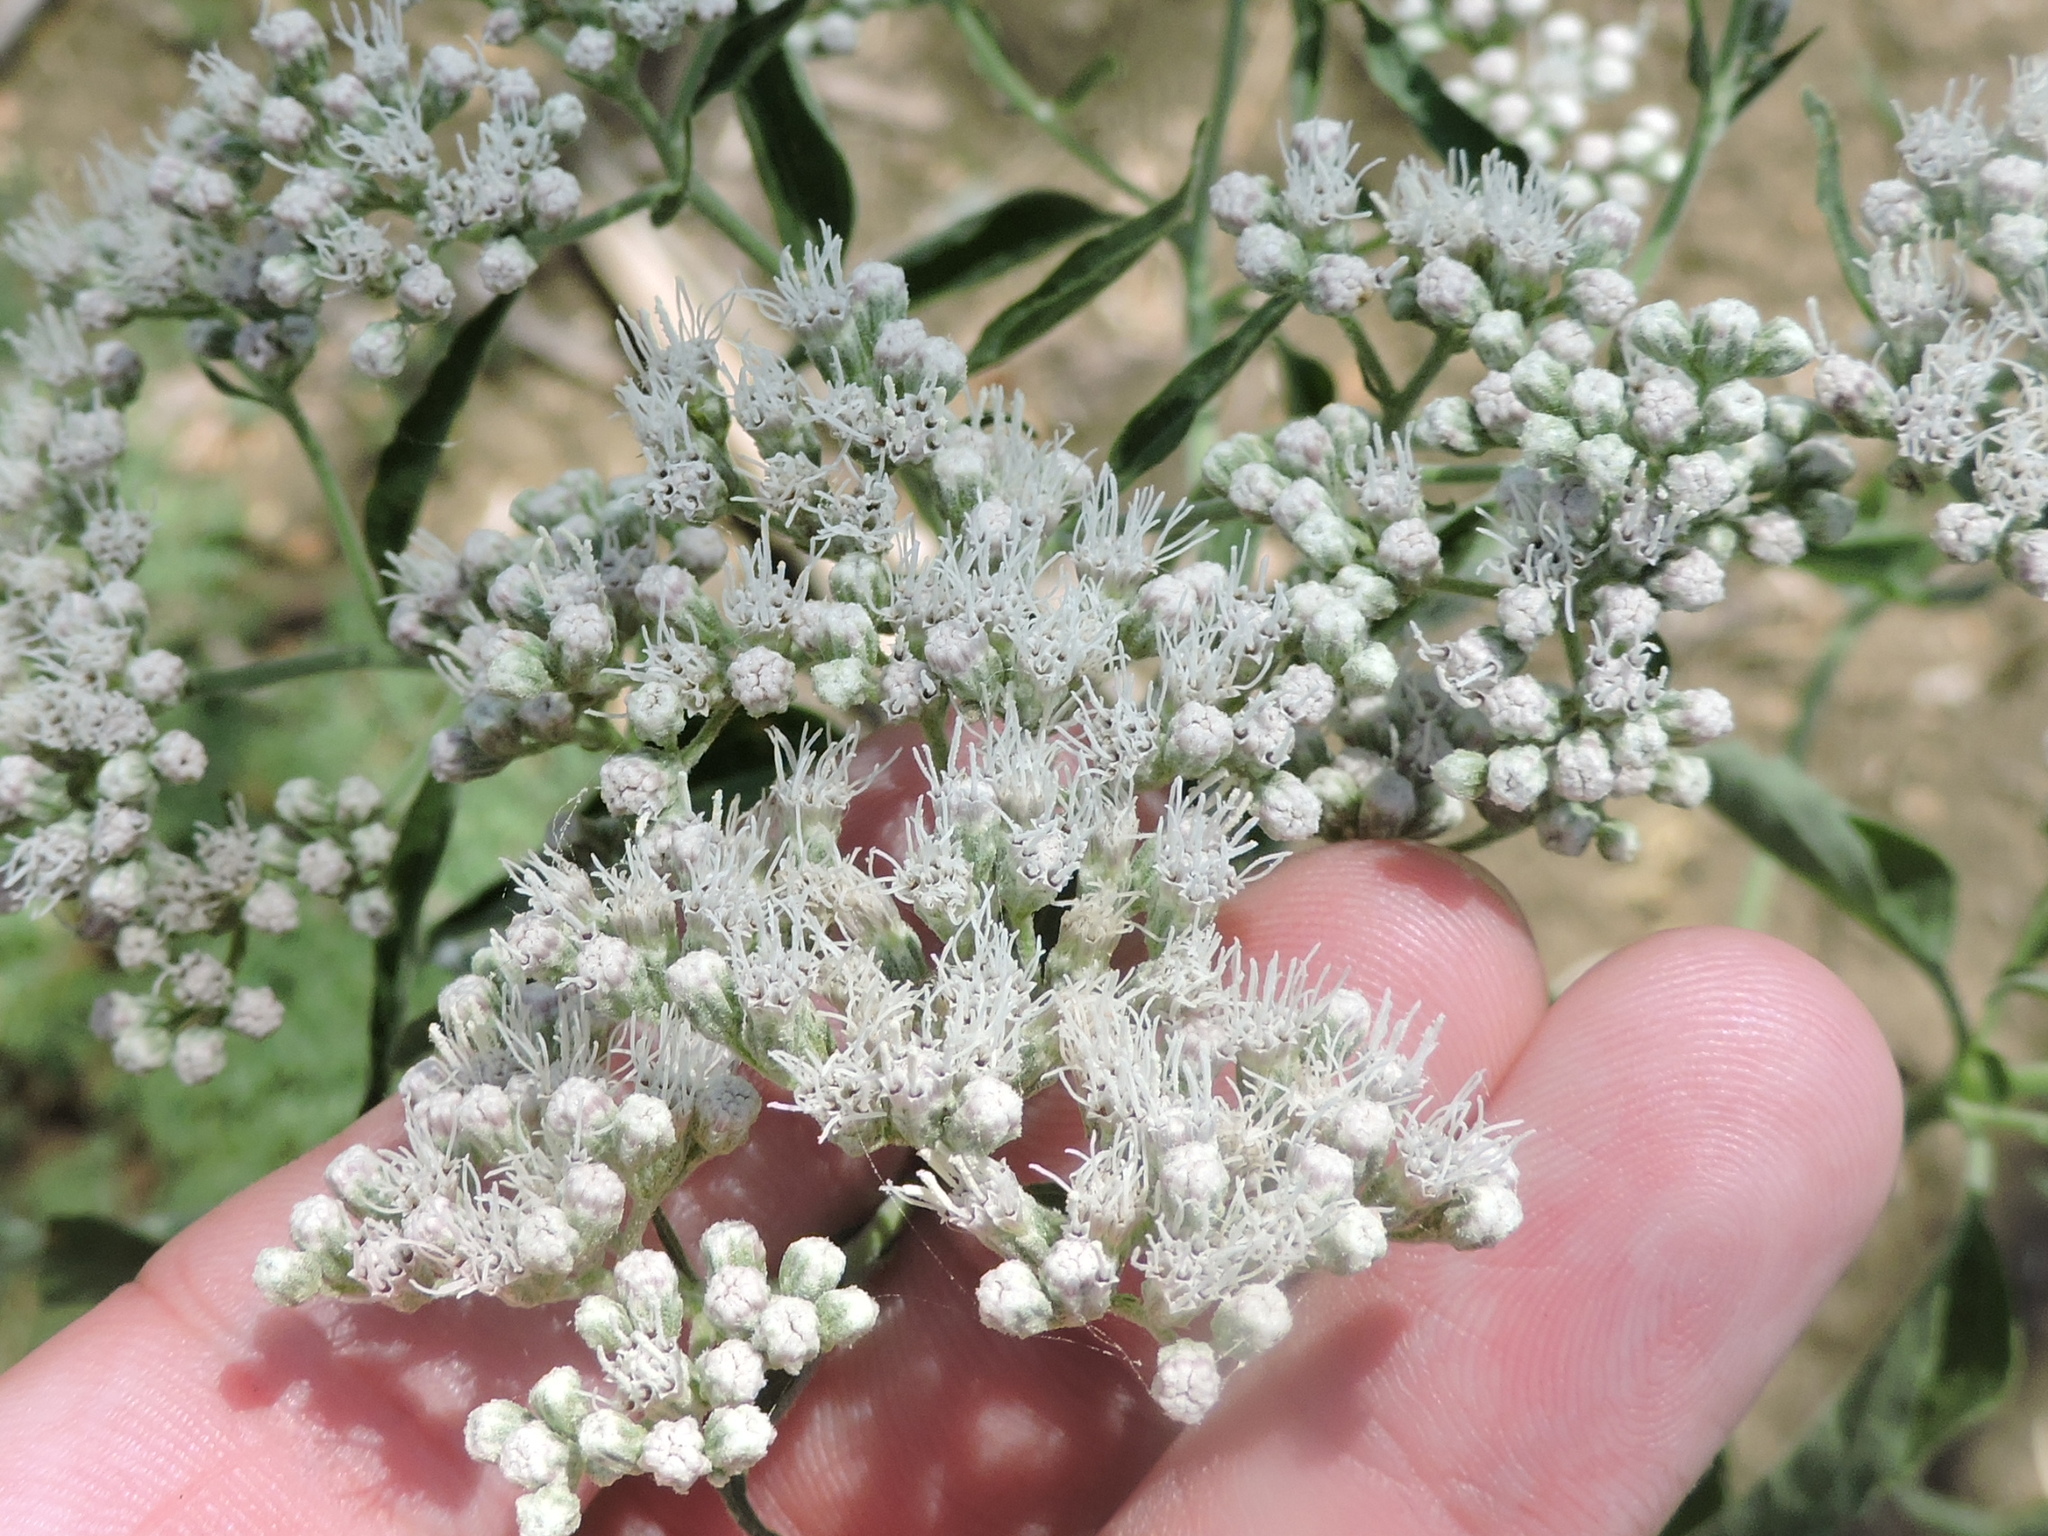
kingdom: Plantae
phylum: Tracheophyta
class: Magnoliopsida
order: Asterales
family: Asteraceae
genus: Eupatorium
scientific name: Eupatorium serotinum
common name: Late boneset
